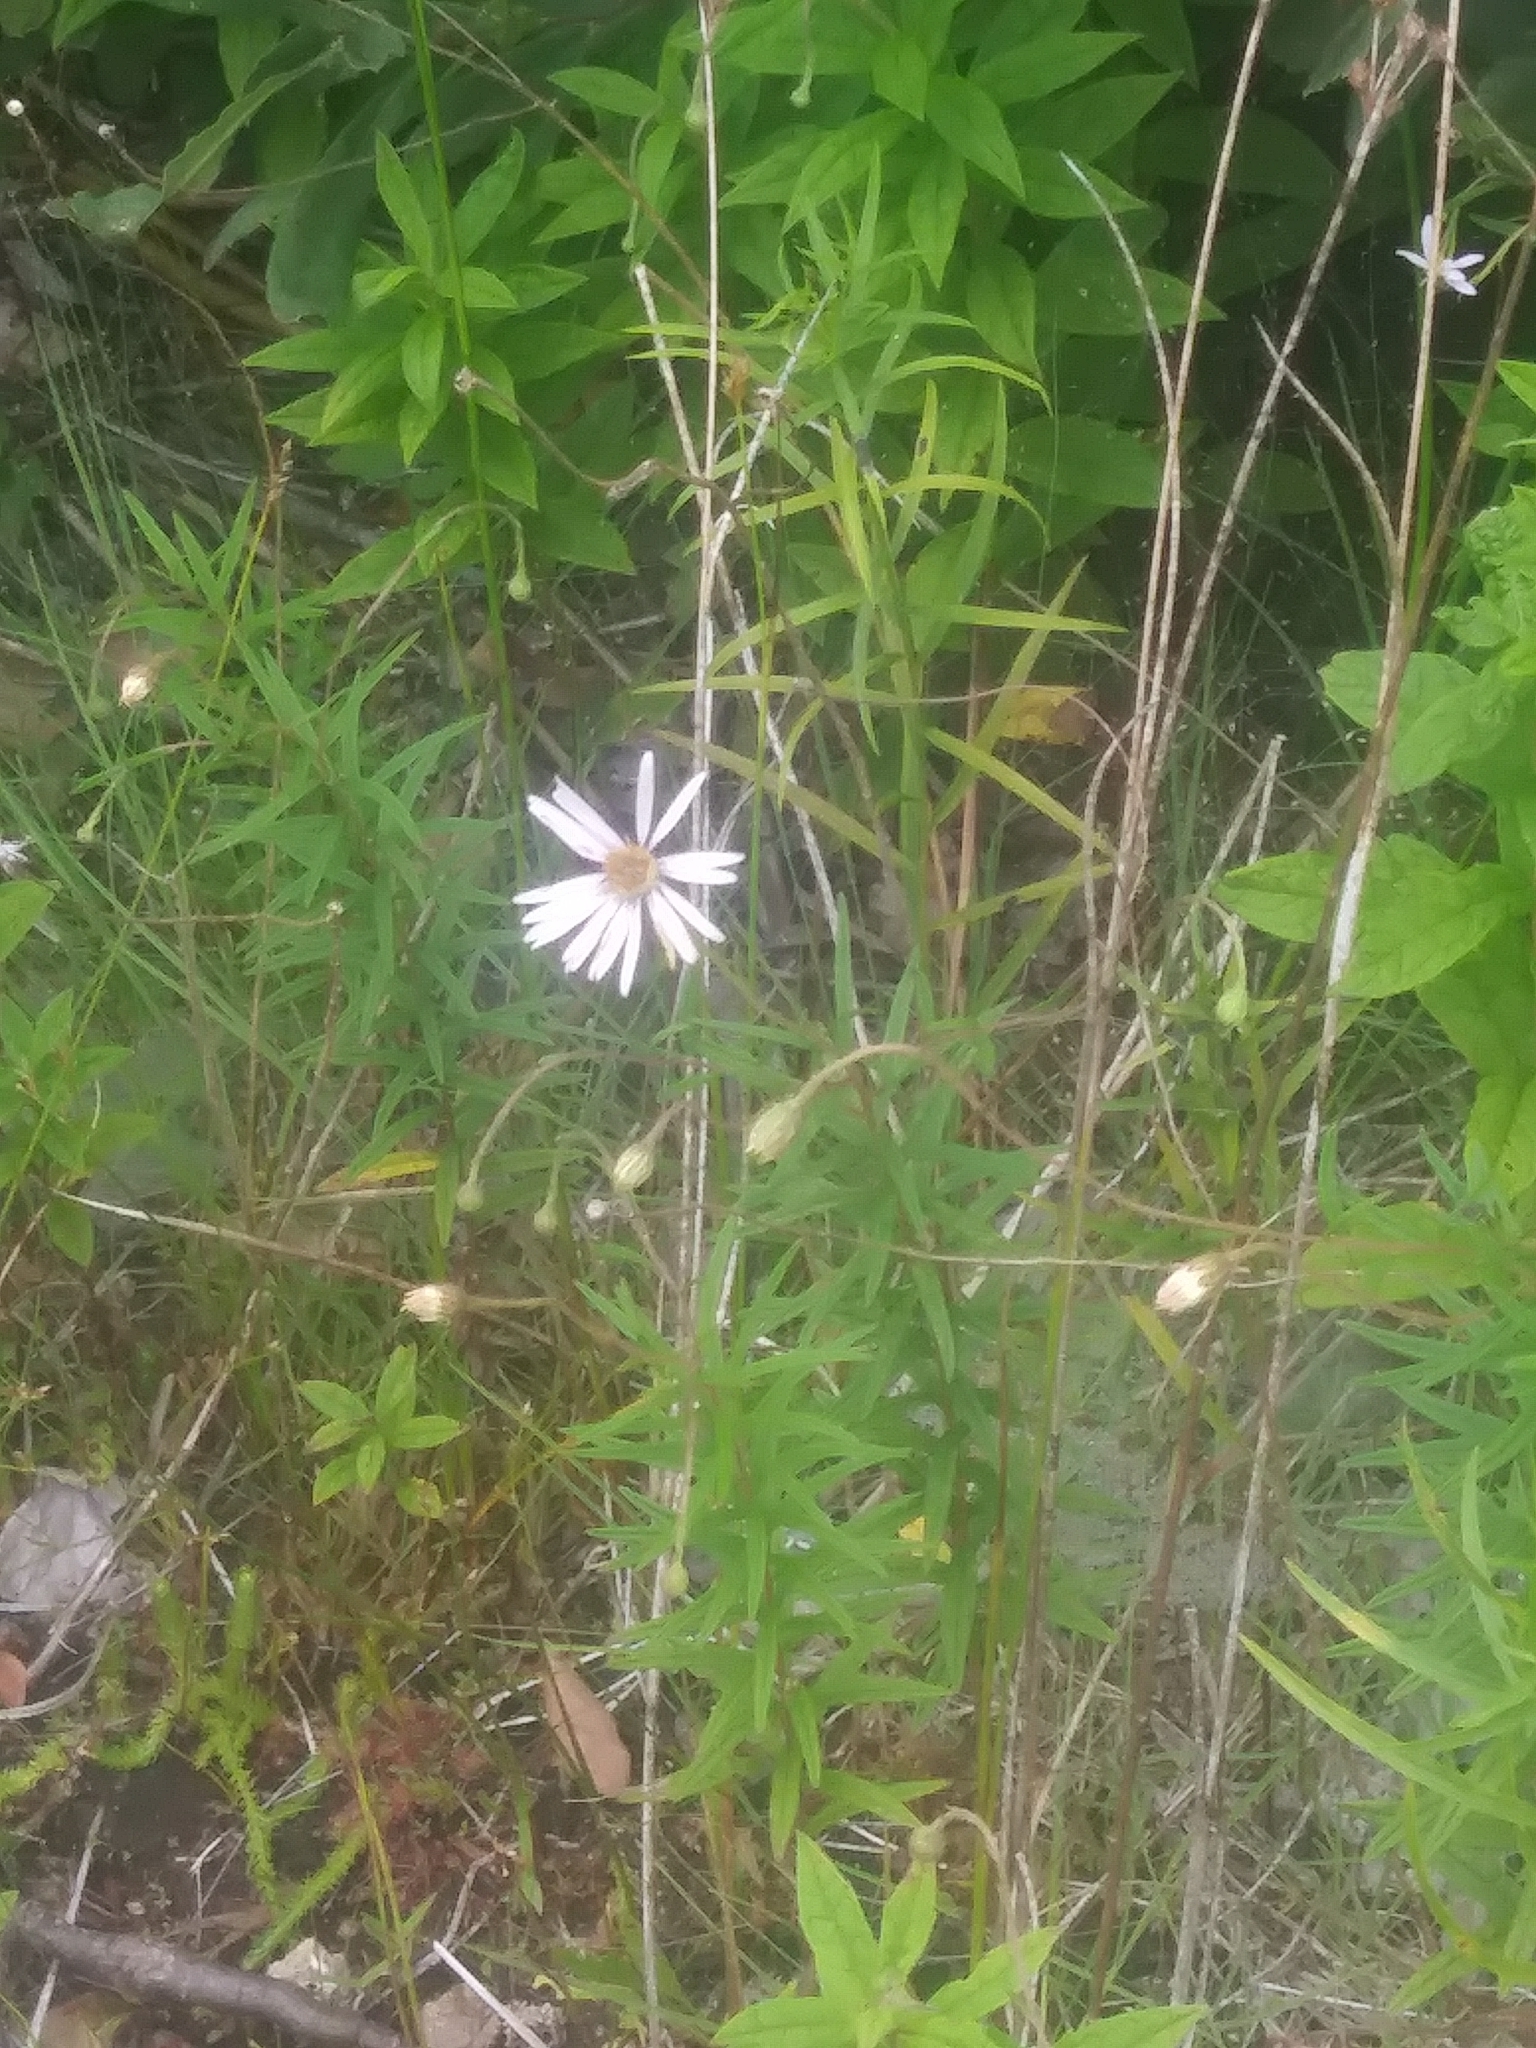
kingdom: Plantae
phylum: Tracheophyta
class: Magnoliopsida
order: Asterales
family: Asteraceae
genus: Oclemena
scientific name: Oclemena nemoralis
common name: Bog aster
